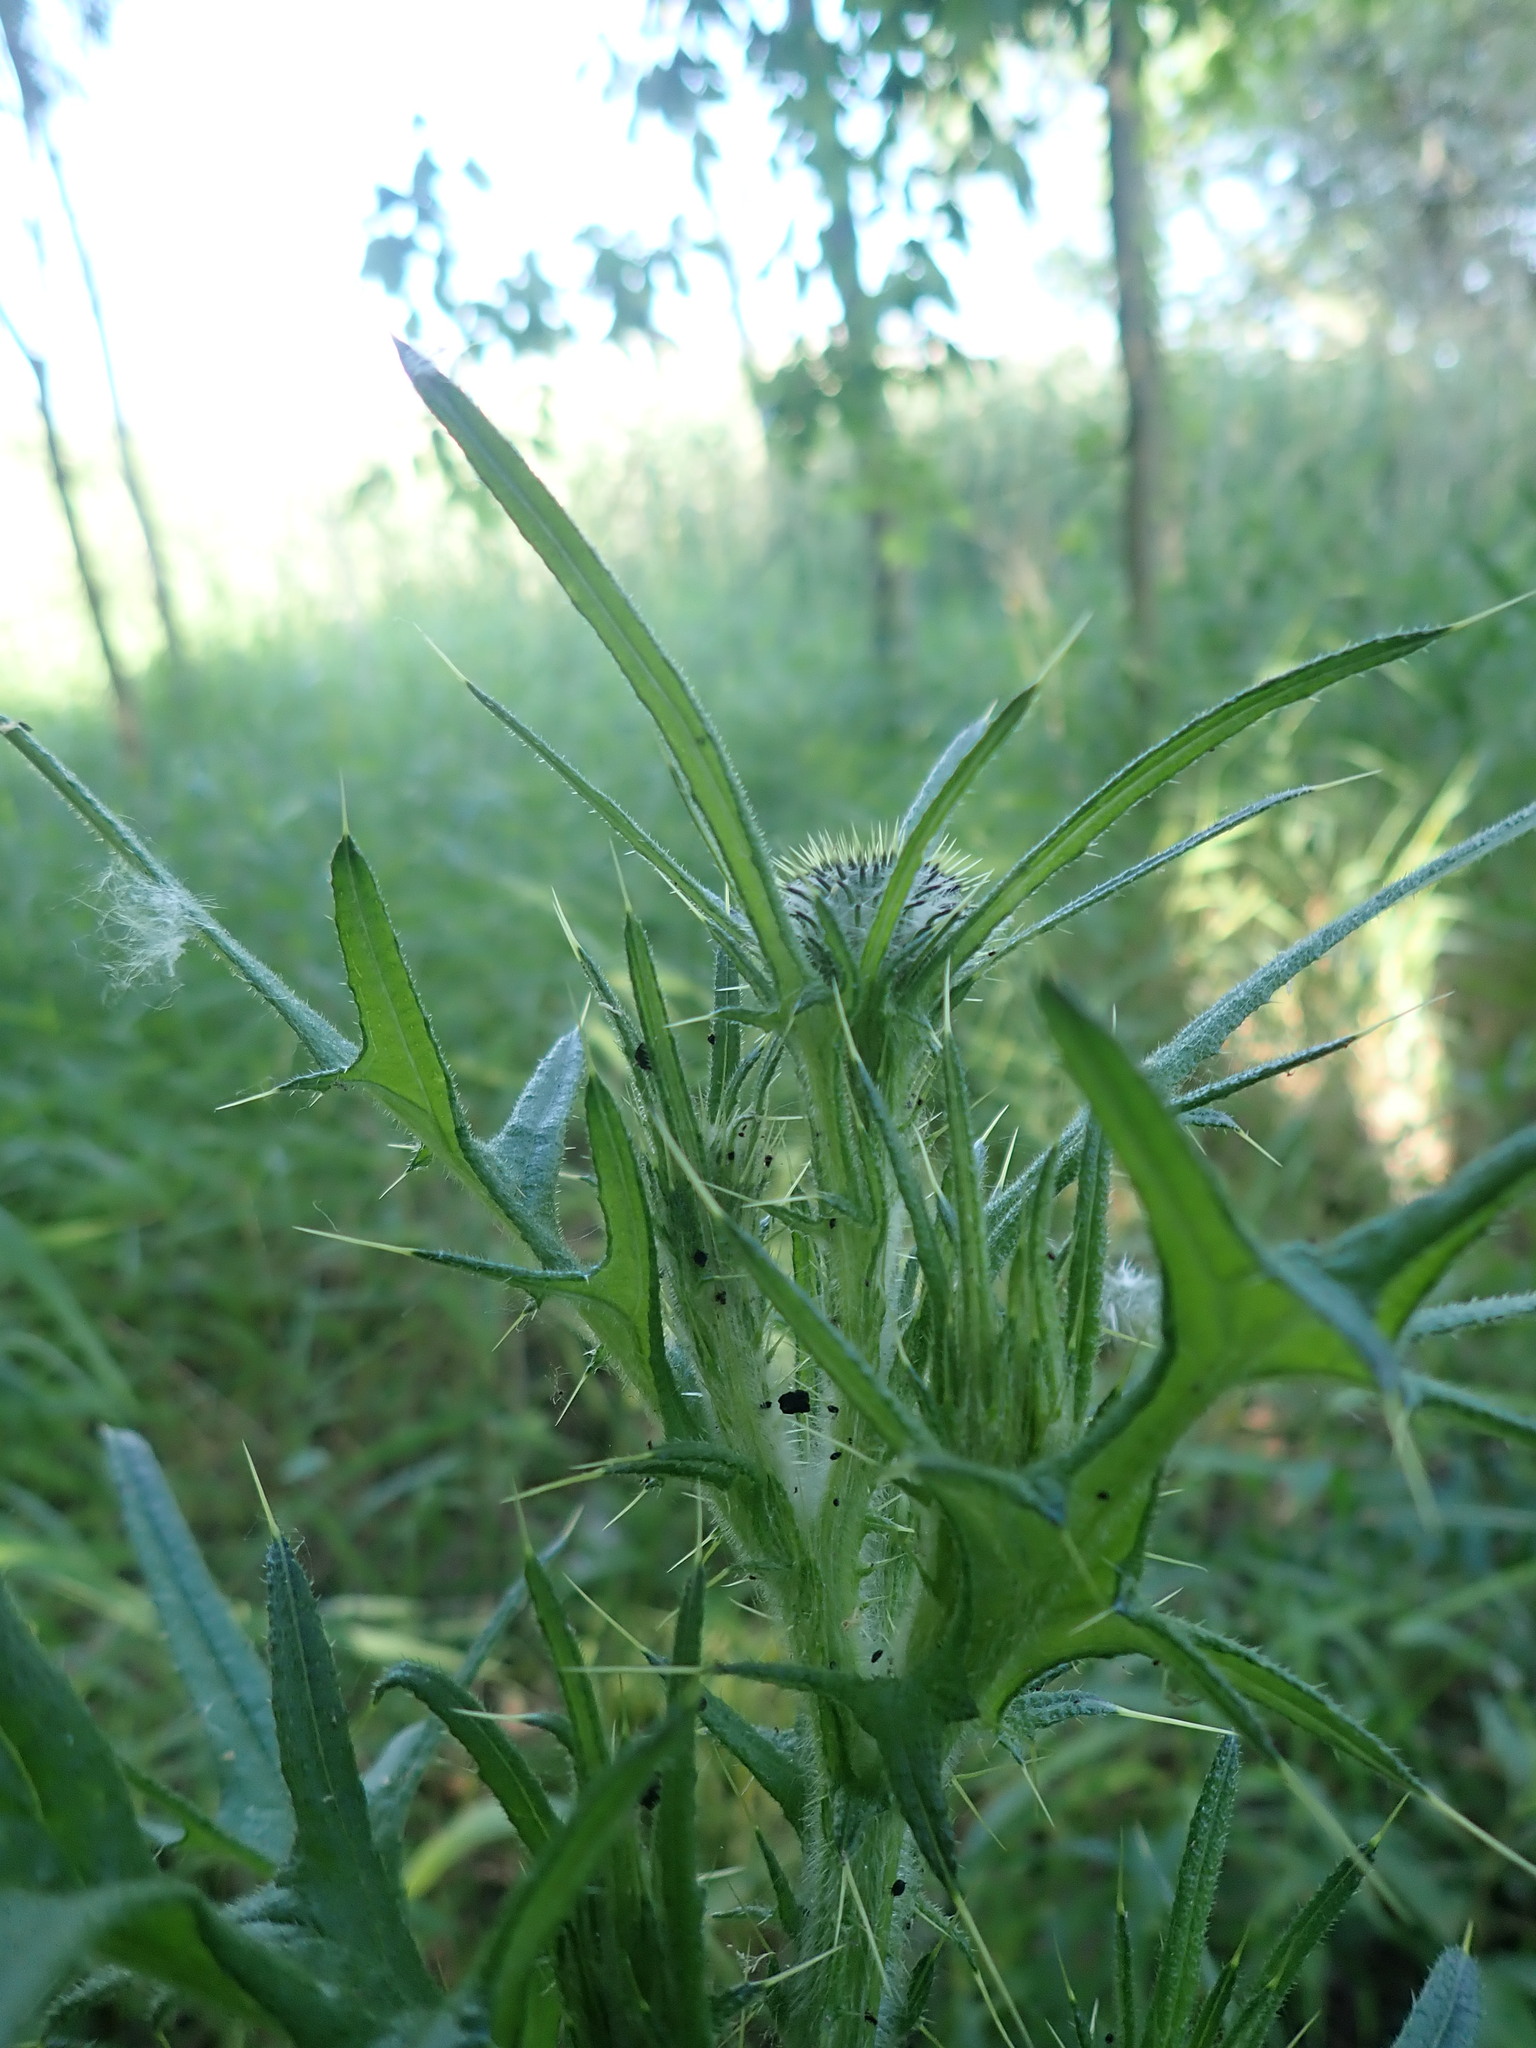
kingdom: Plantae
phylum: Tracheophyta
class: Magnoliopsida
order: Asterales
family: Asteraceae
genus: Cirsium
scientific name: Cirsium vulgare
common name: Bull thistle
